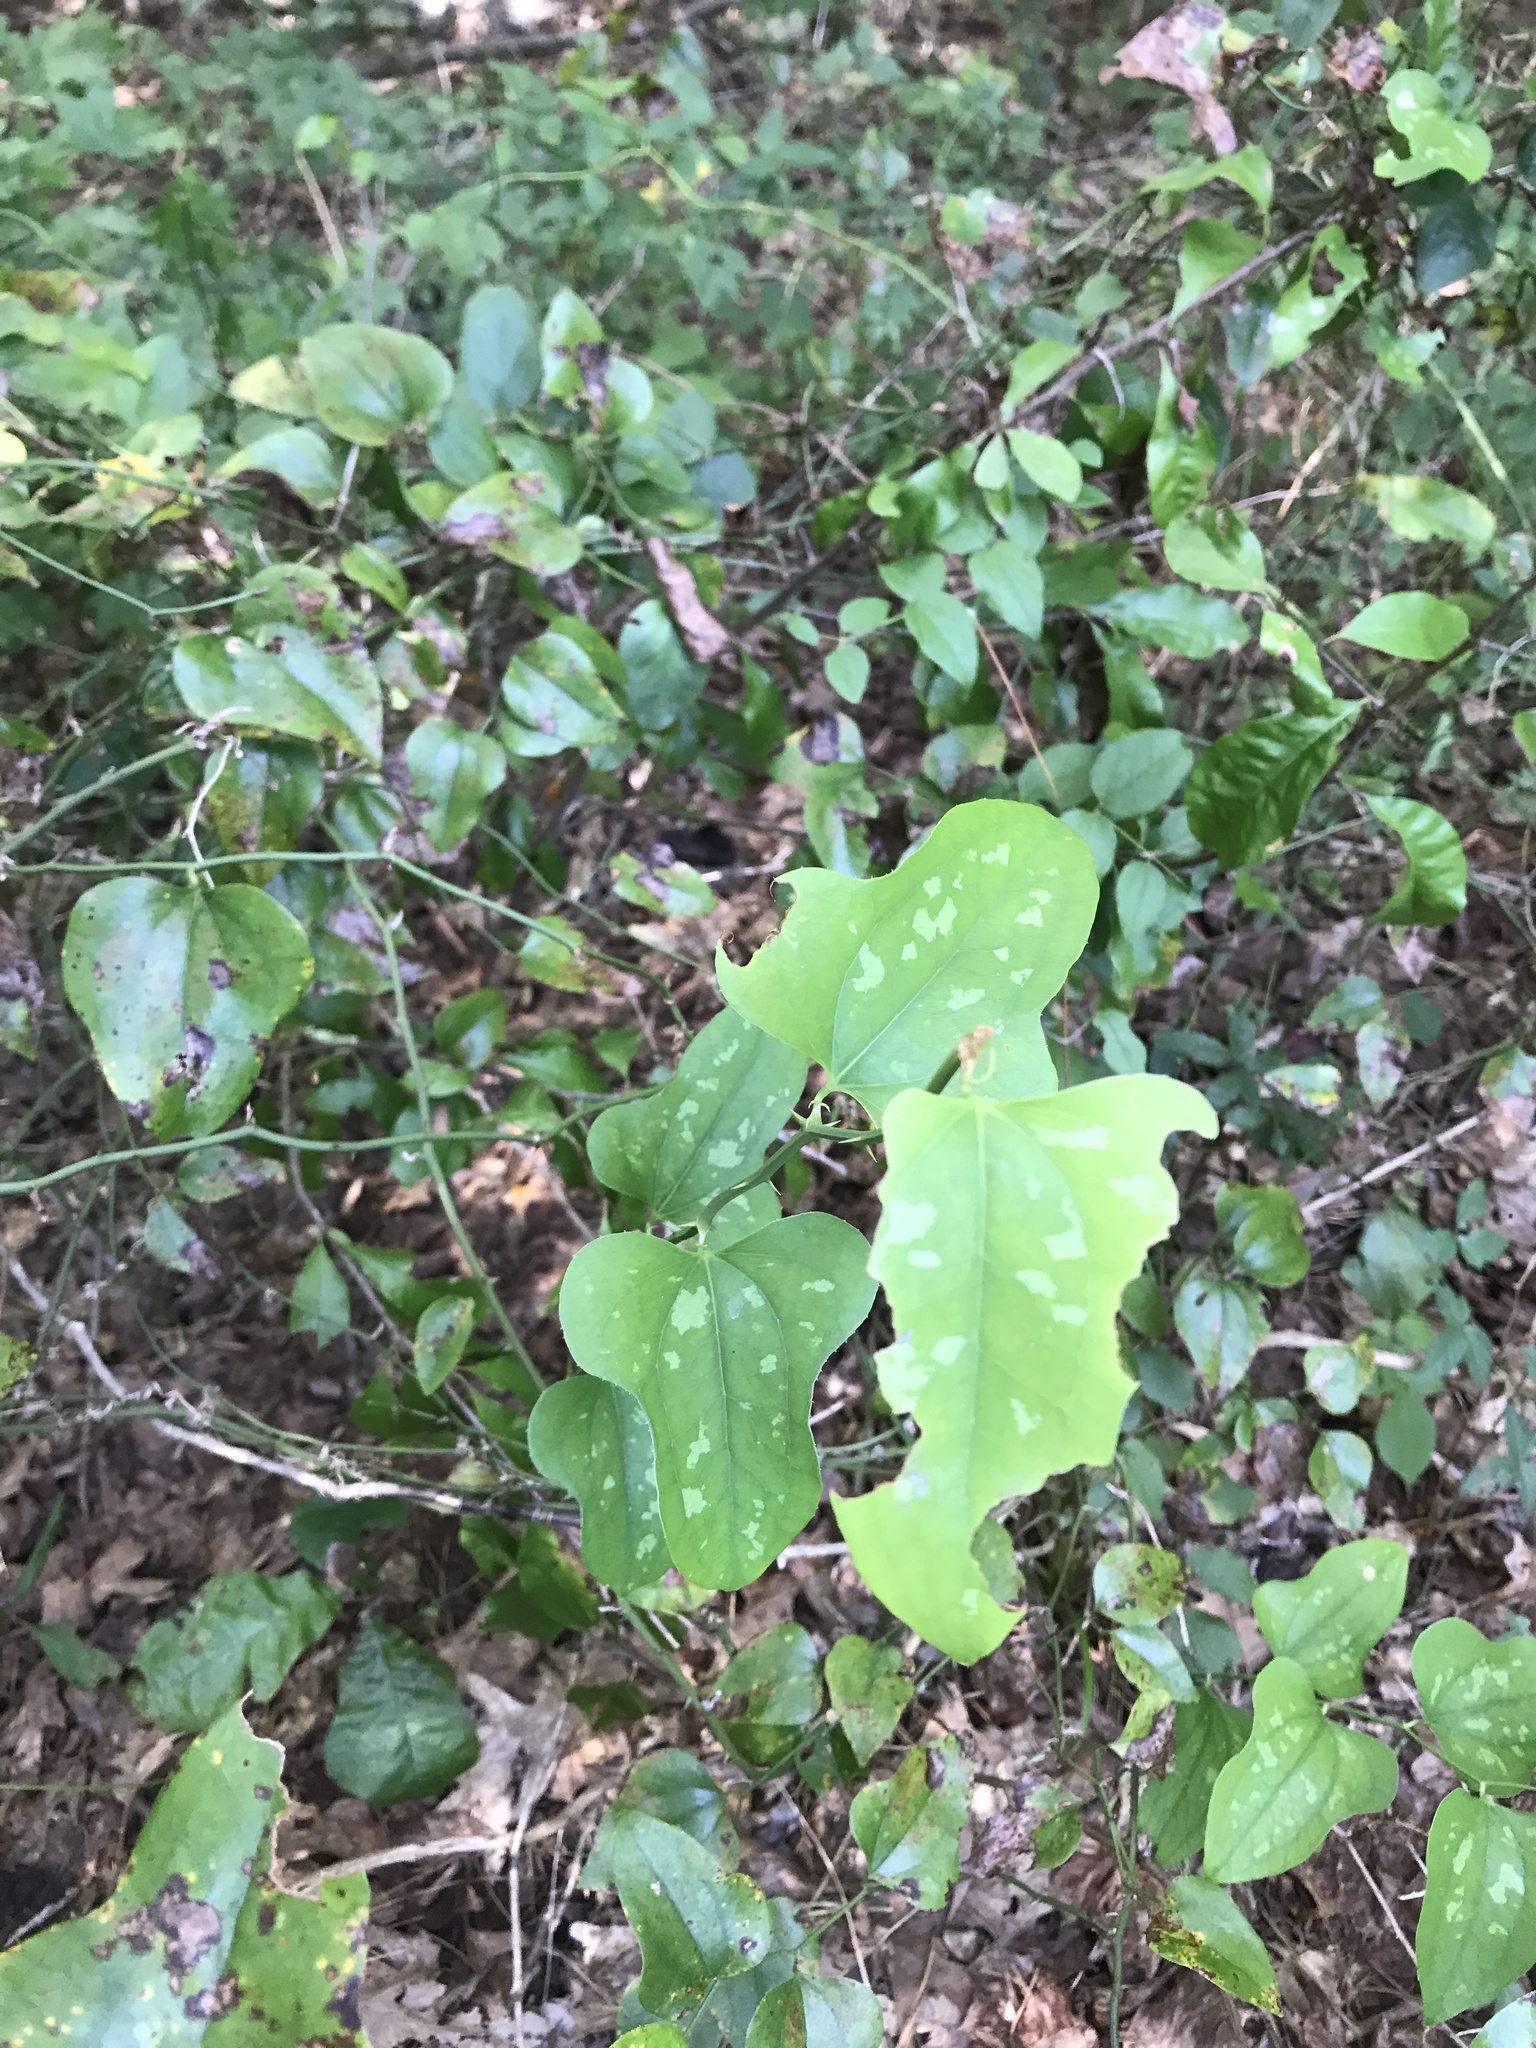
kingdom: Plantae
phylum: Tracheophyta
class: Liliopsida
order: Liliales
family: Smilacaceae
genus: Smilax
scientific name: Smilax bona-nox
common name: Catbrier
